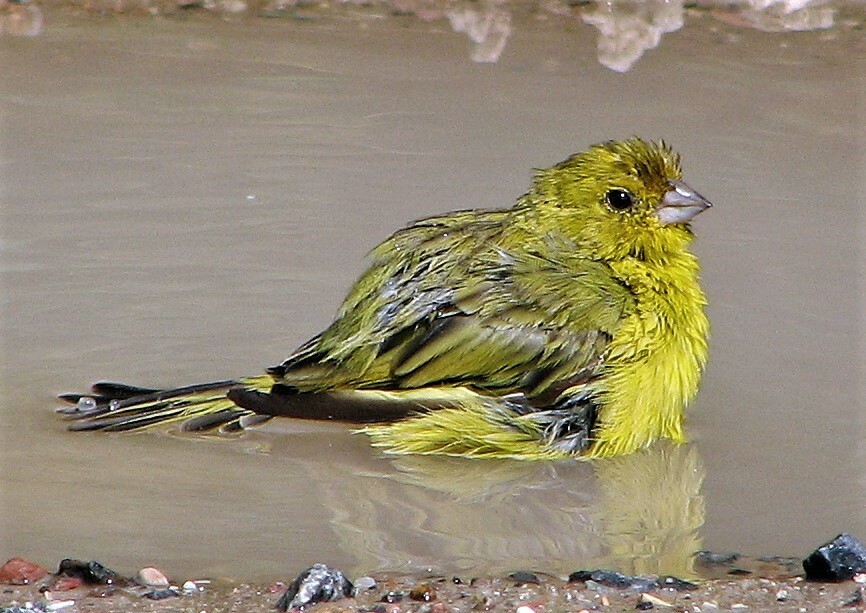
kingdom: Animalia
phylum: Chordata
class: Aves
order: Passeriformes
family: Thraupidae
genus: Sicalis
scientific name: Sicalis flaveola
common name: Saffron finch
